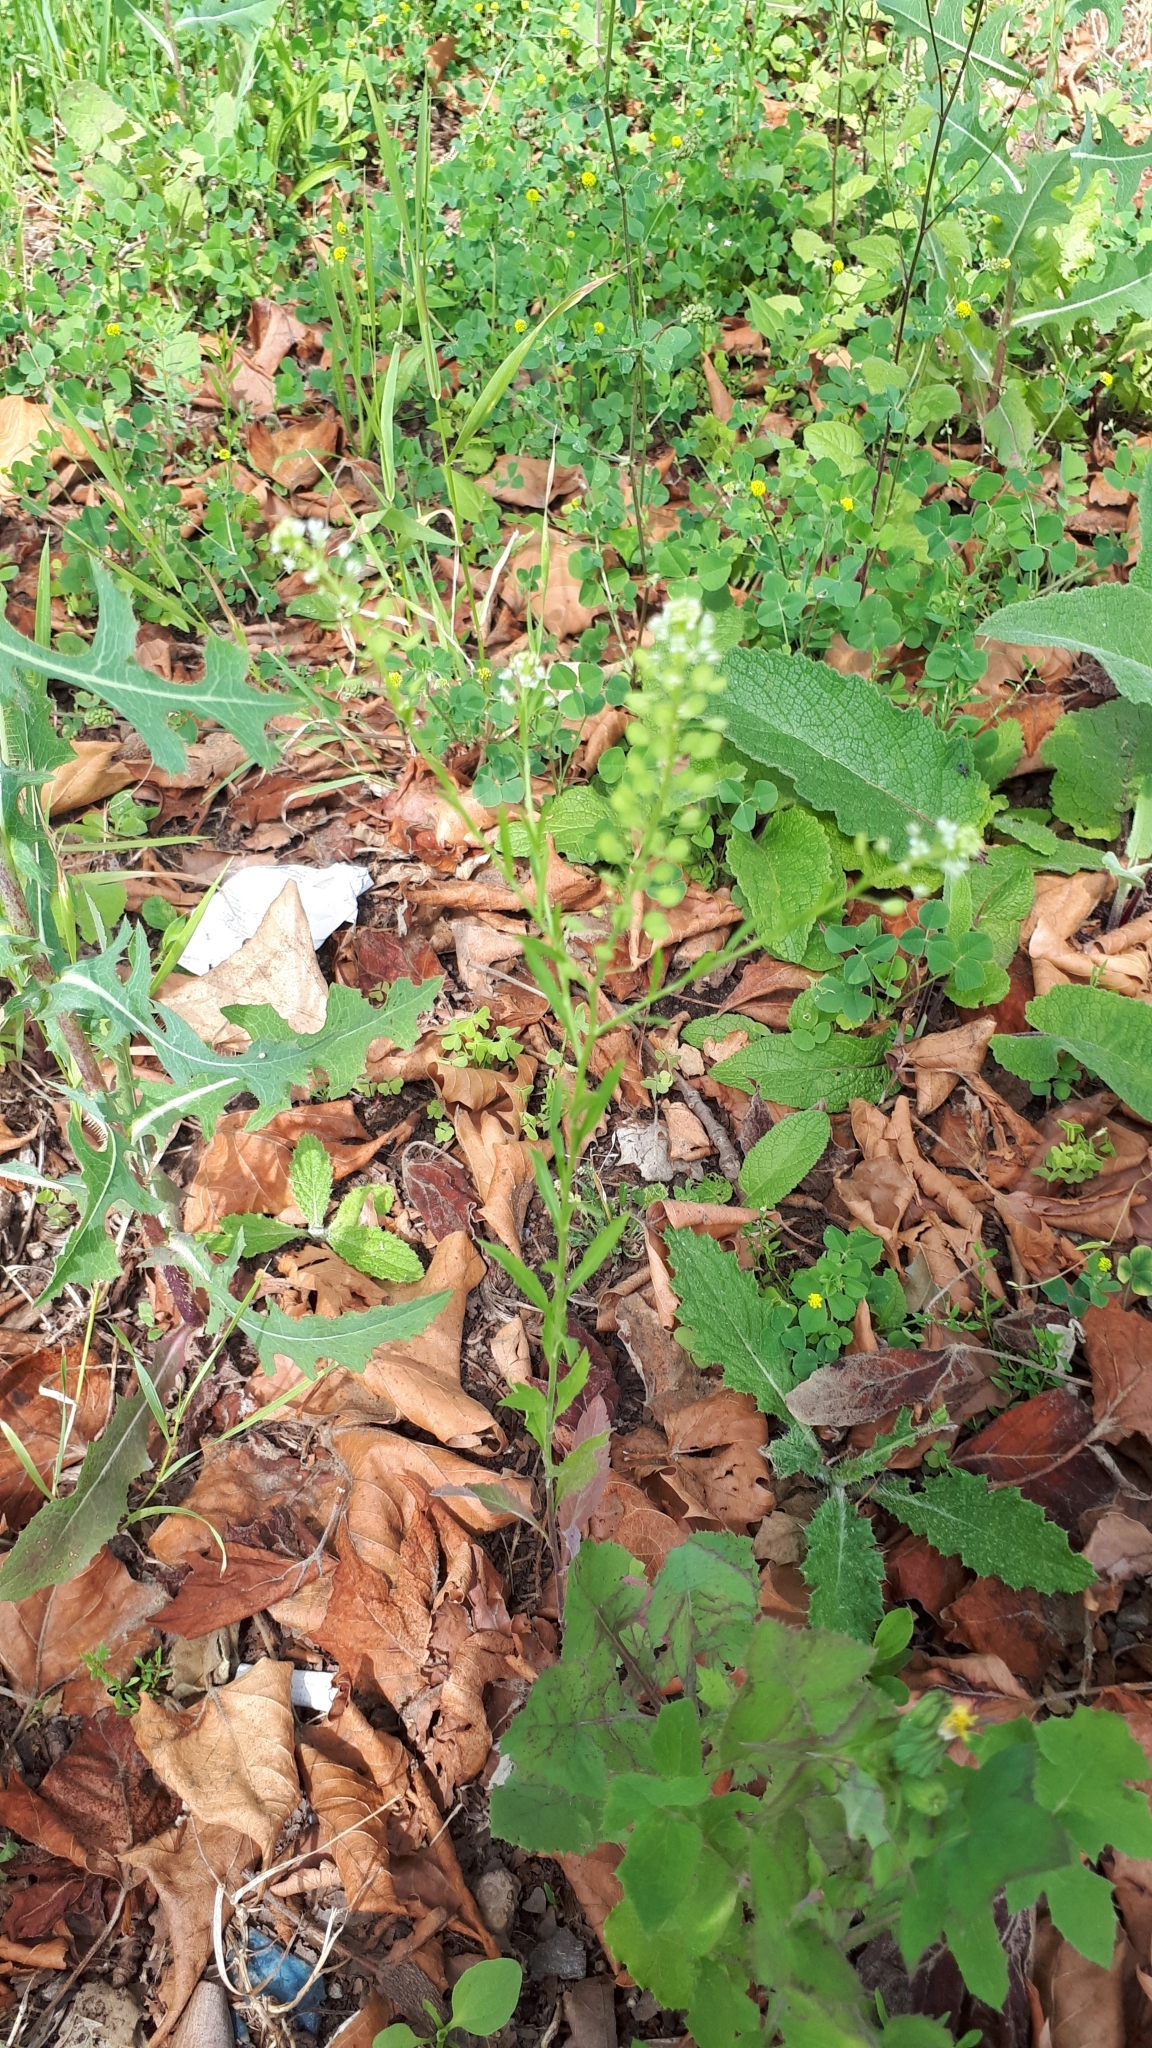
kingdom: Plantae
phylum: Tracheophyta
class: Magnoliopsida
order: Brassicales
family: Brassicaceae
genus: Lepidium
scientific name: Lepidium virginicum
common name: Least pepperwort
